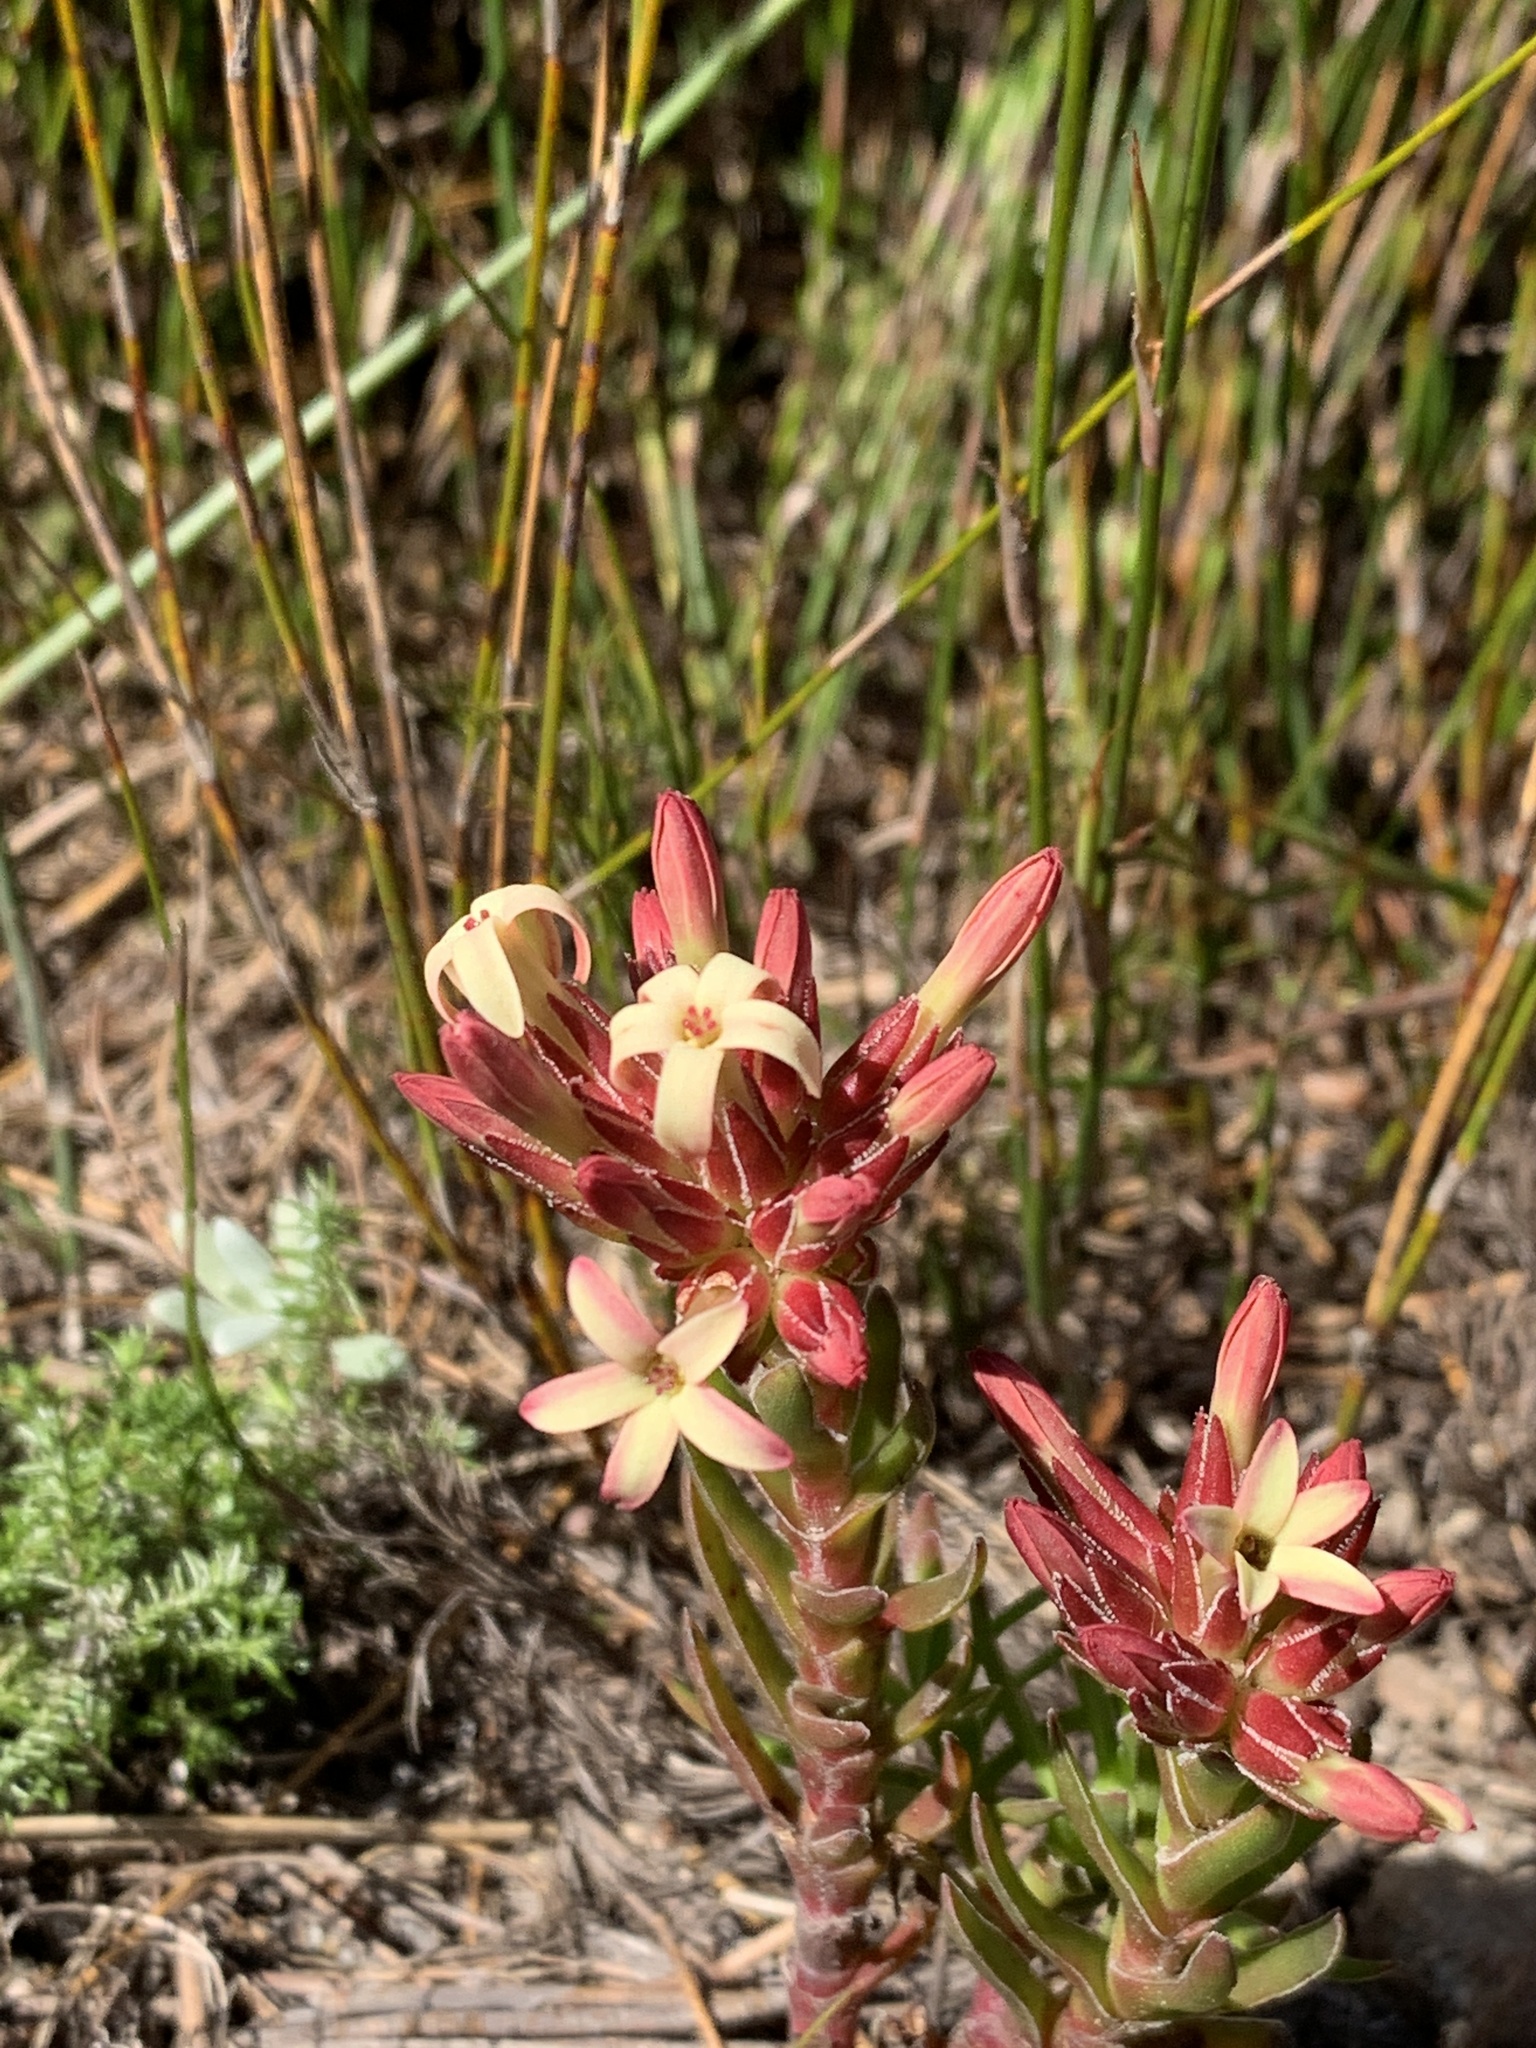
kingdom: Plantae
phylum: Tracheophyta
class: Magnoliopsida
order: Saxifragales
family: Crassulaceae
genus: Crassula
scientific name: Crassula fascicularis
